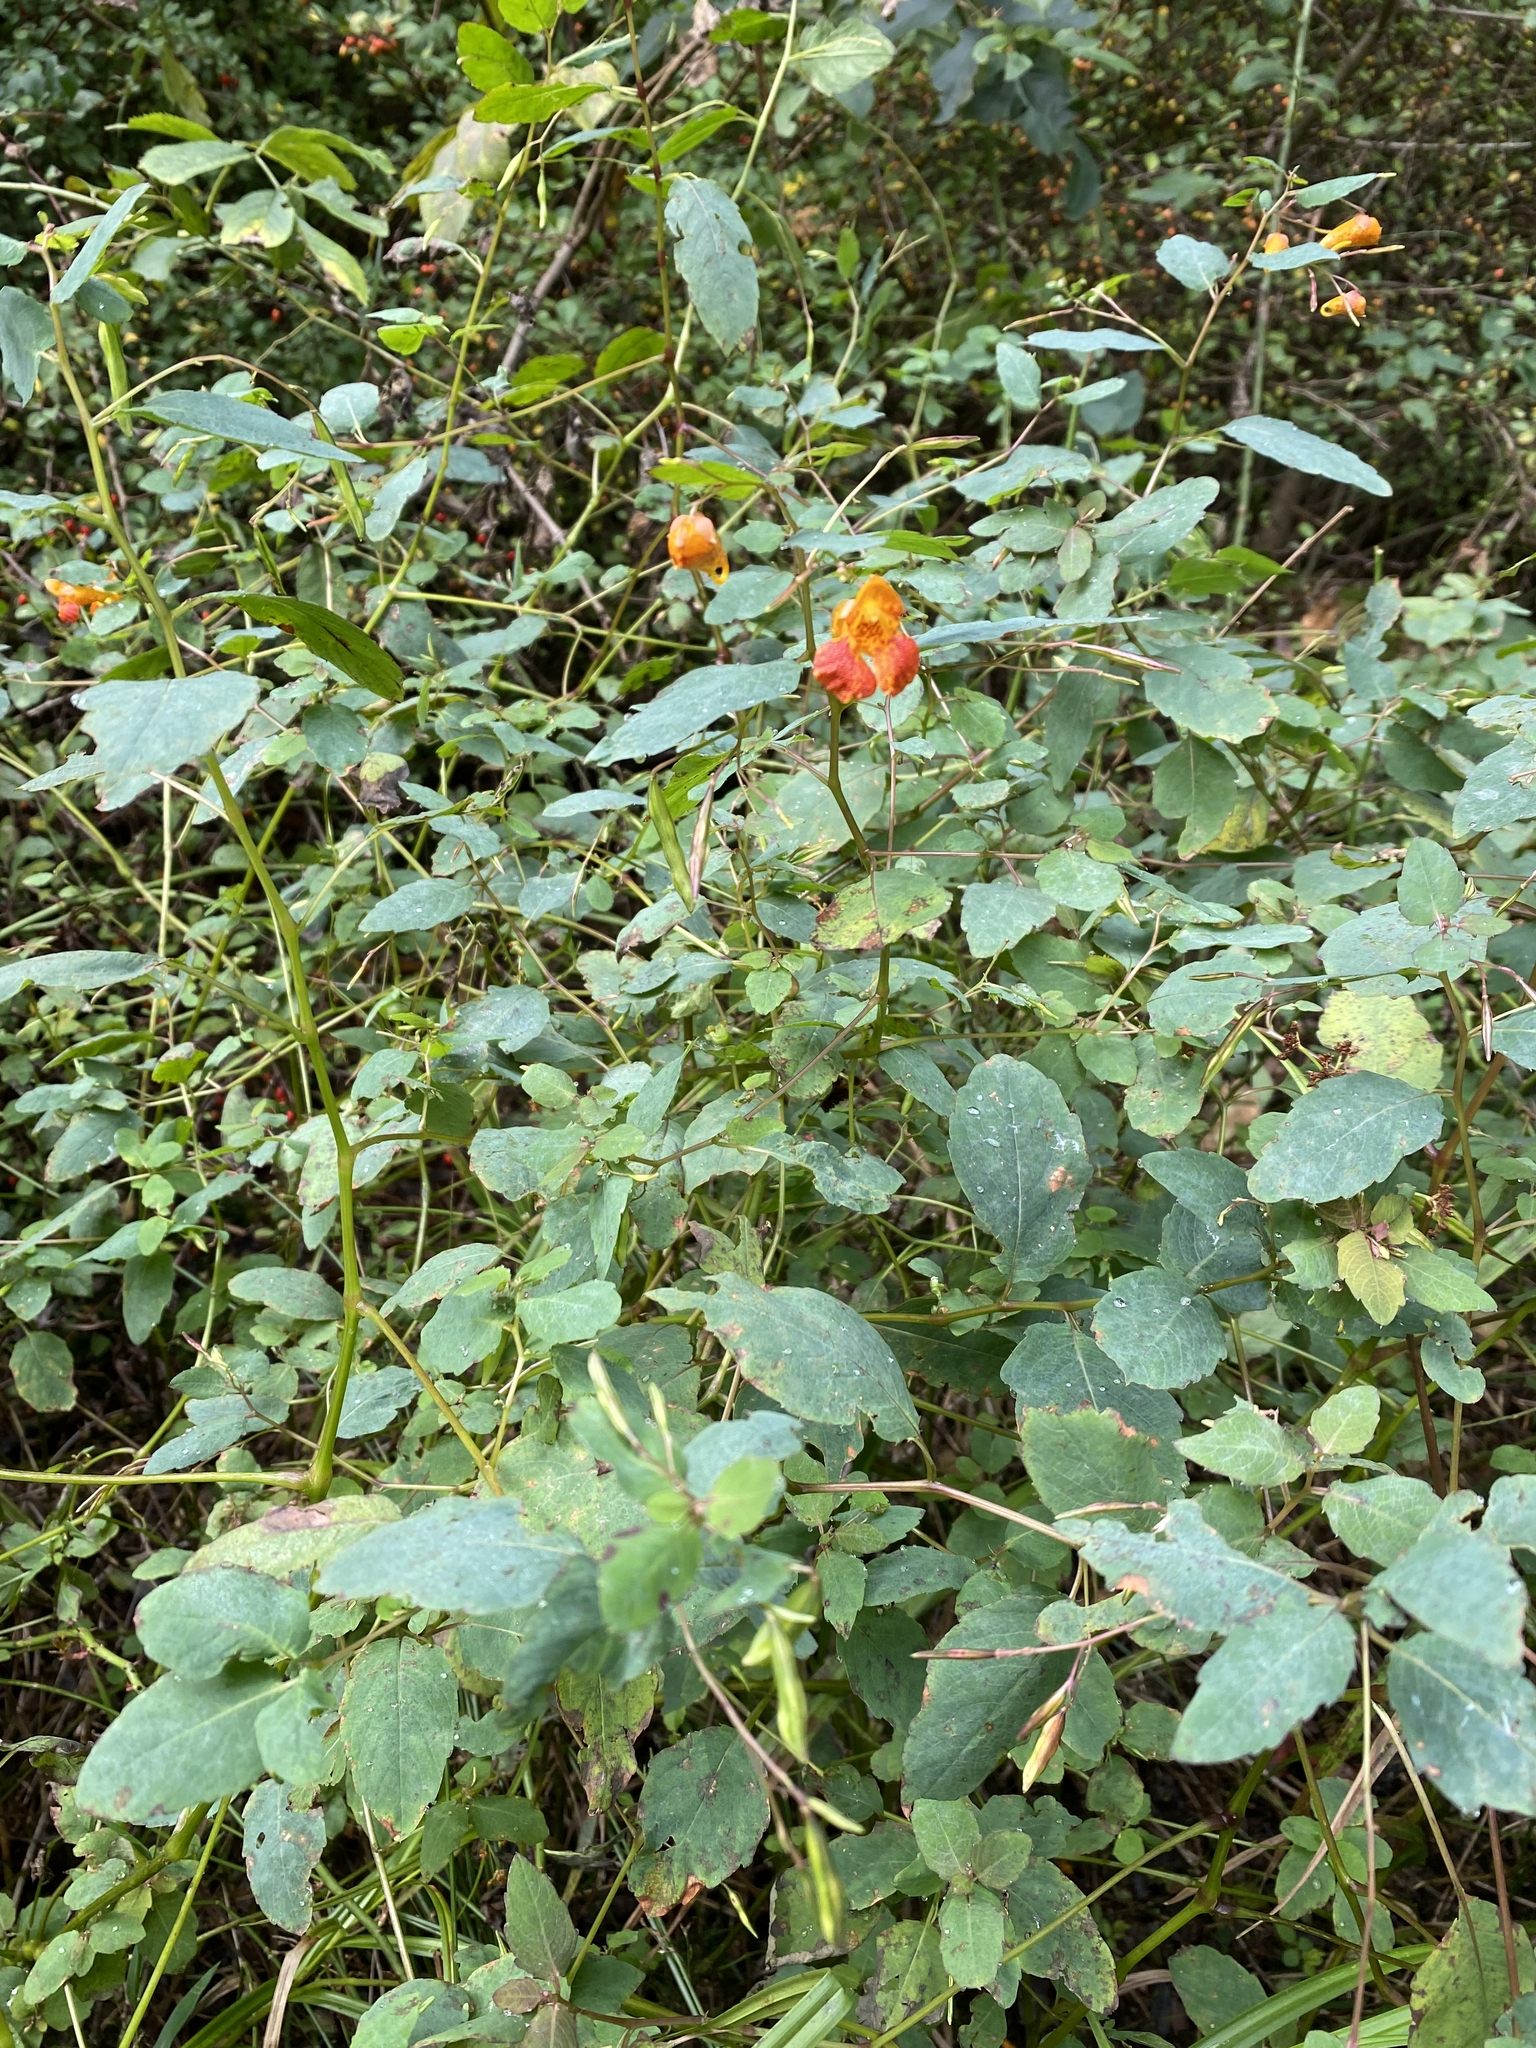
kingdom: Plantae
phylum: Tracheophyta
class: Magnoliopsida
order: Ericales
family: Balsaminaceae
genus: Impatiens
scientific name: Impatiens capensis
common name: Orange balsam
